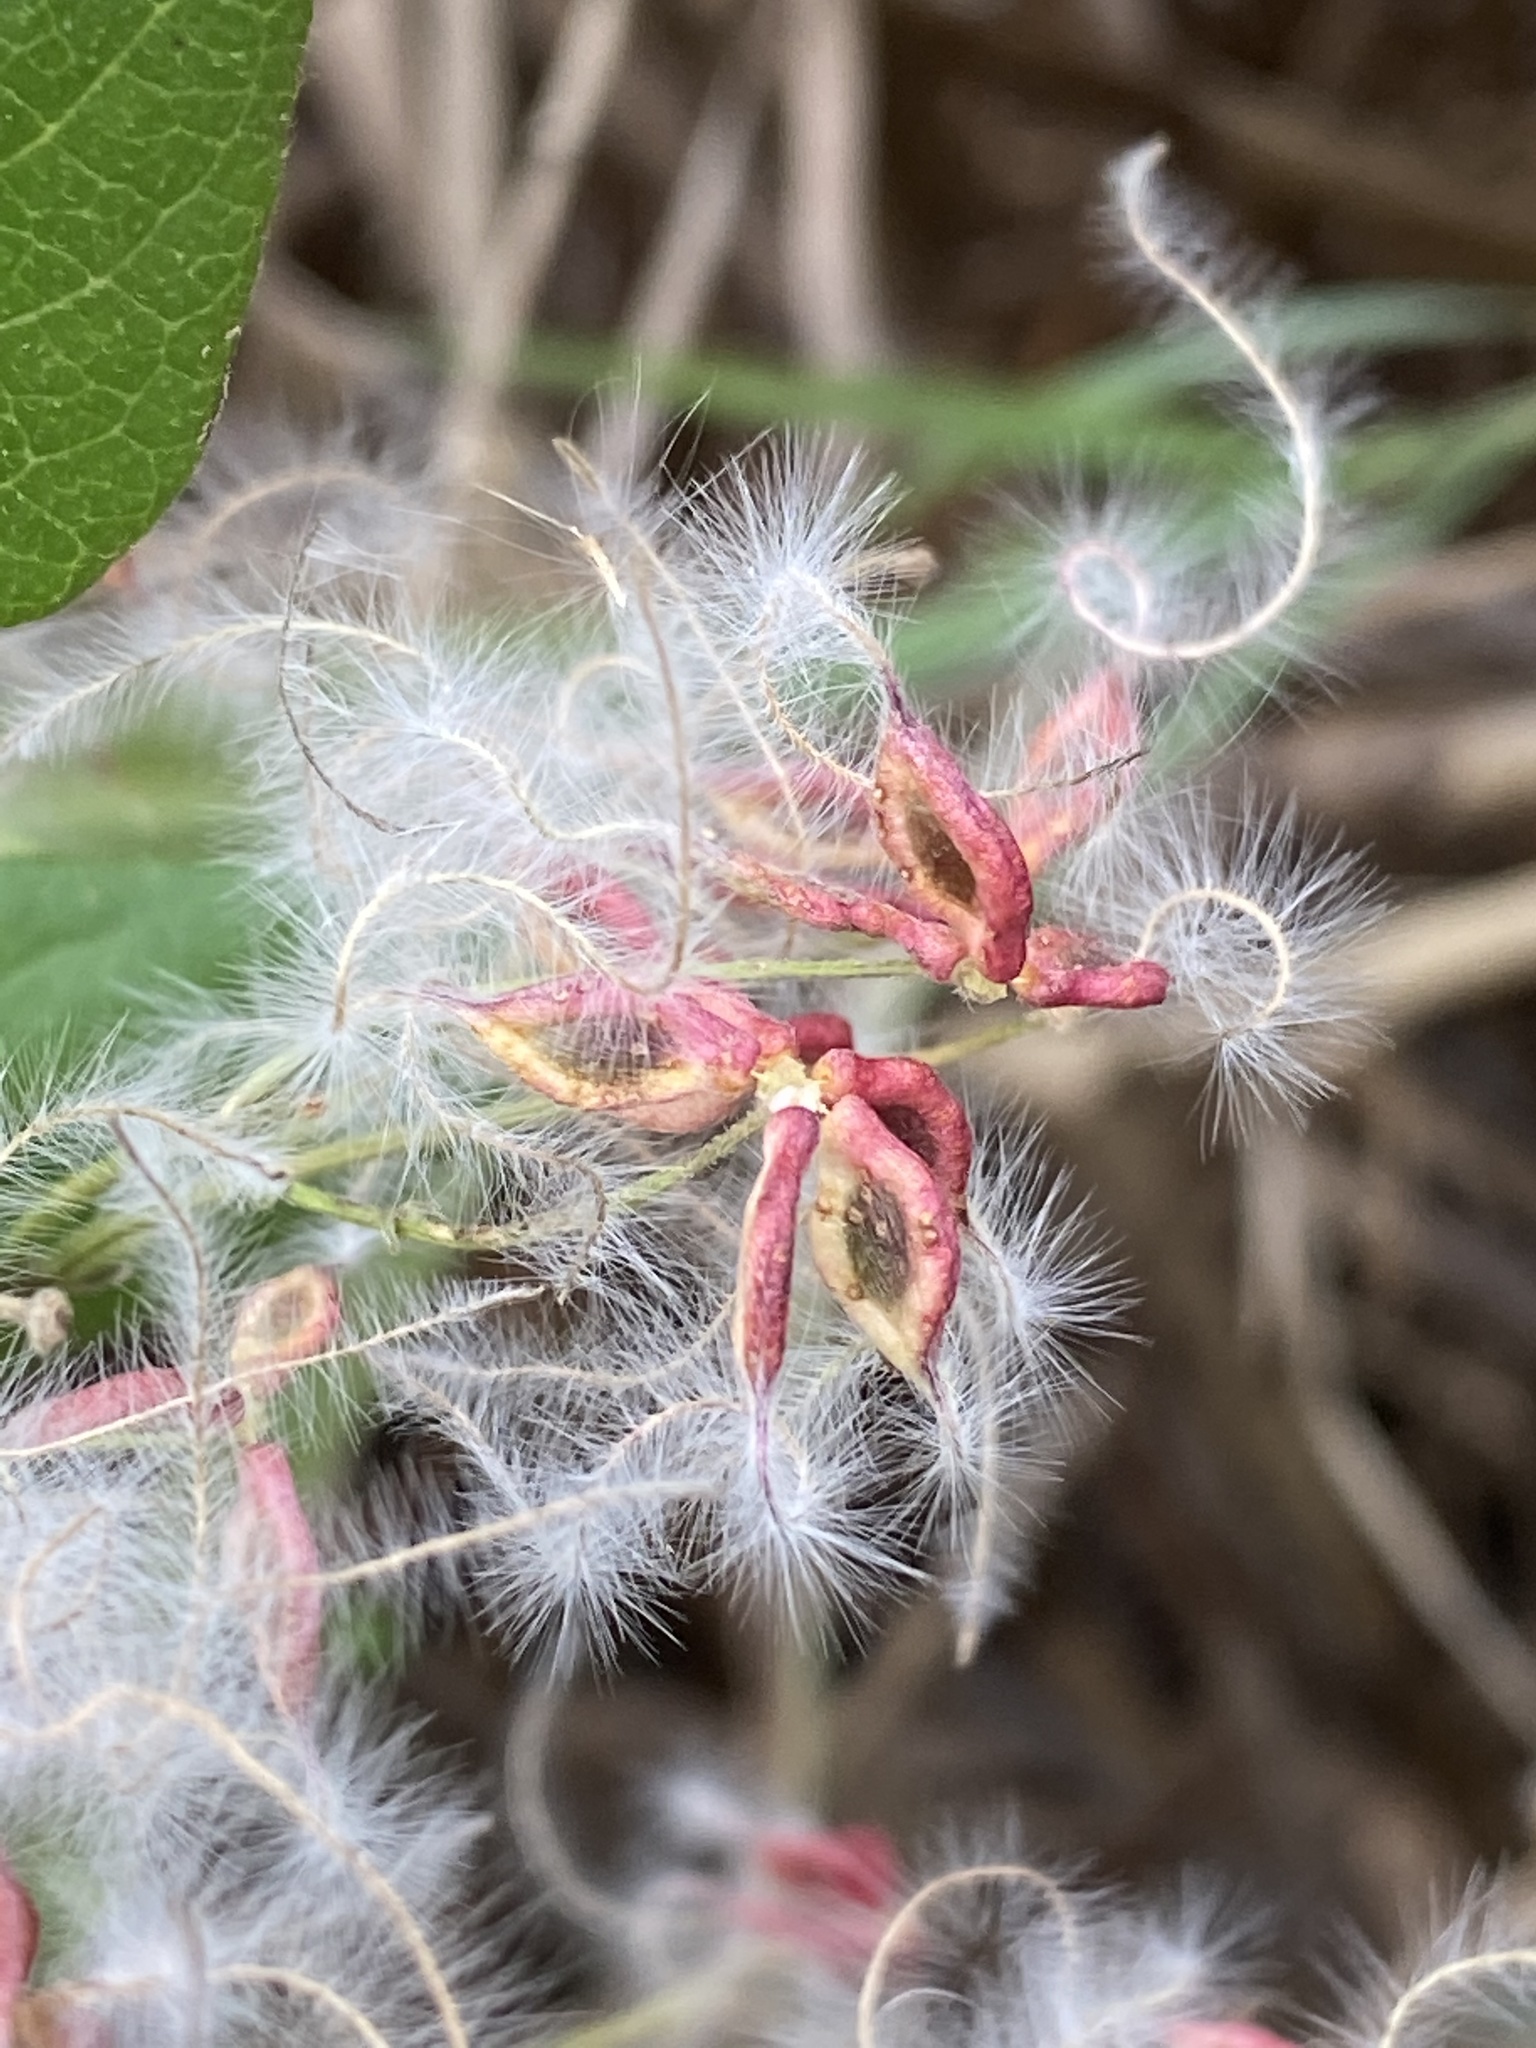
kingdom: Plantae
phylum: Tracheophyta
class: Magnoliopsida
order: Ranunculales
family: Ranunculaceae
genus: Clematis
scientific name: Clematis terniflora
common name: Sweet autumn clematis
